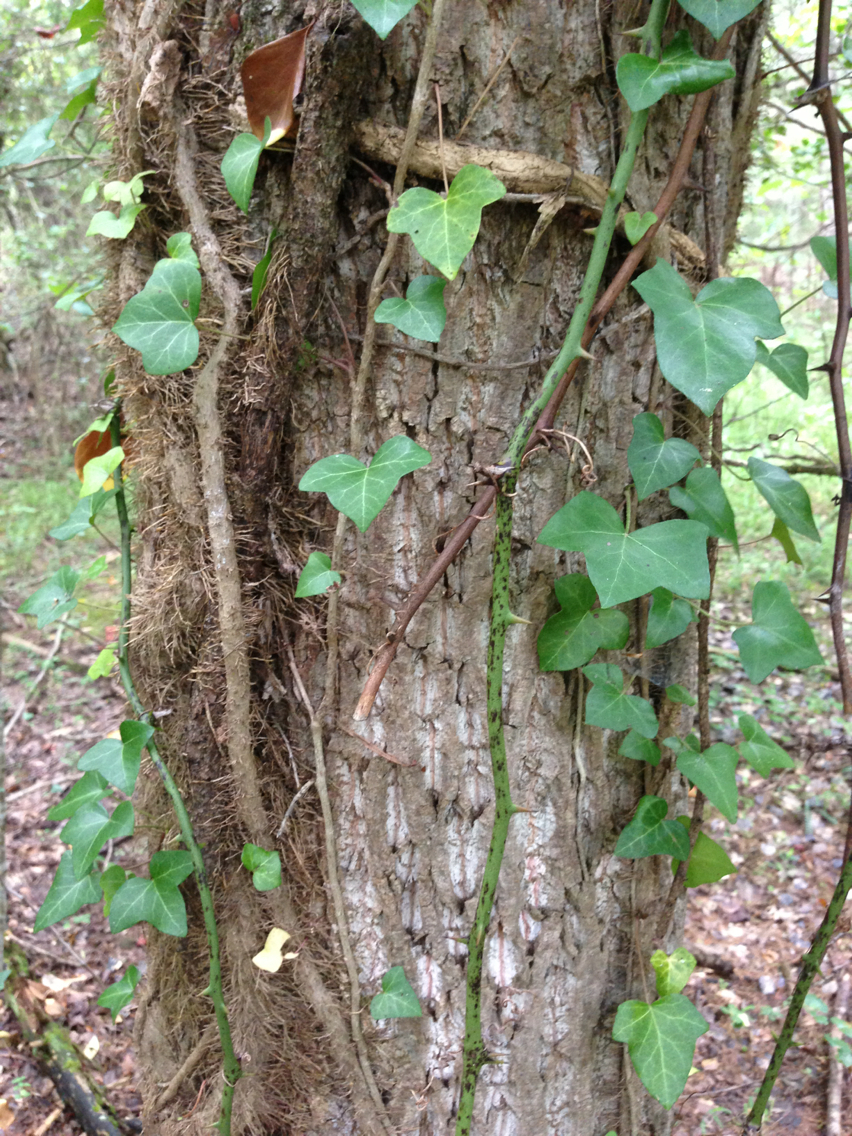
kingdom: Plantae
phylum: Tracheophyta
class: Magnoliopsida
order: Apiales
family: Araliaceae
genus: Hedera
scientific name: Hedera helix
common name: Ivy
